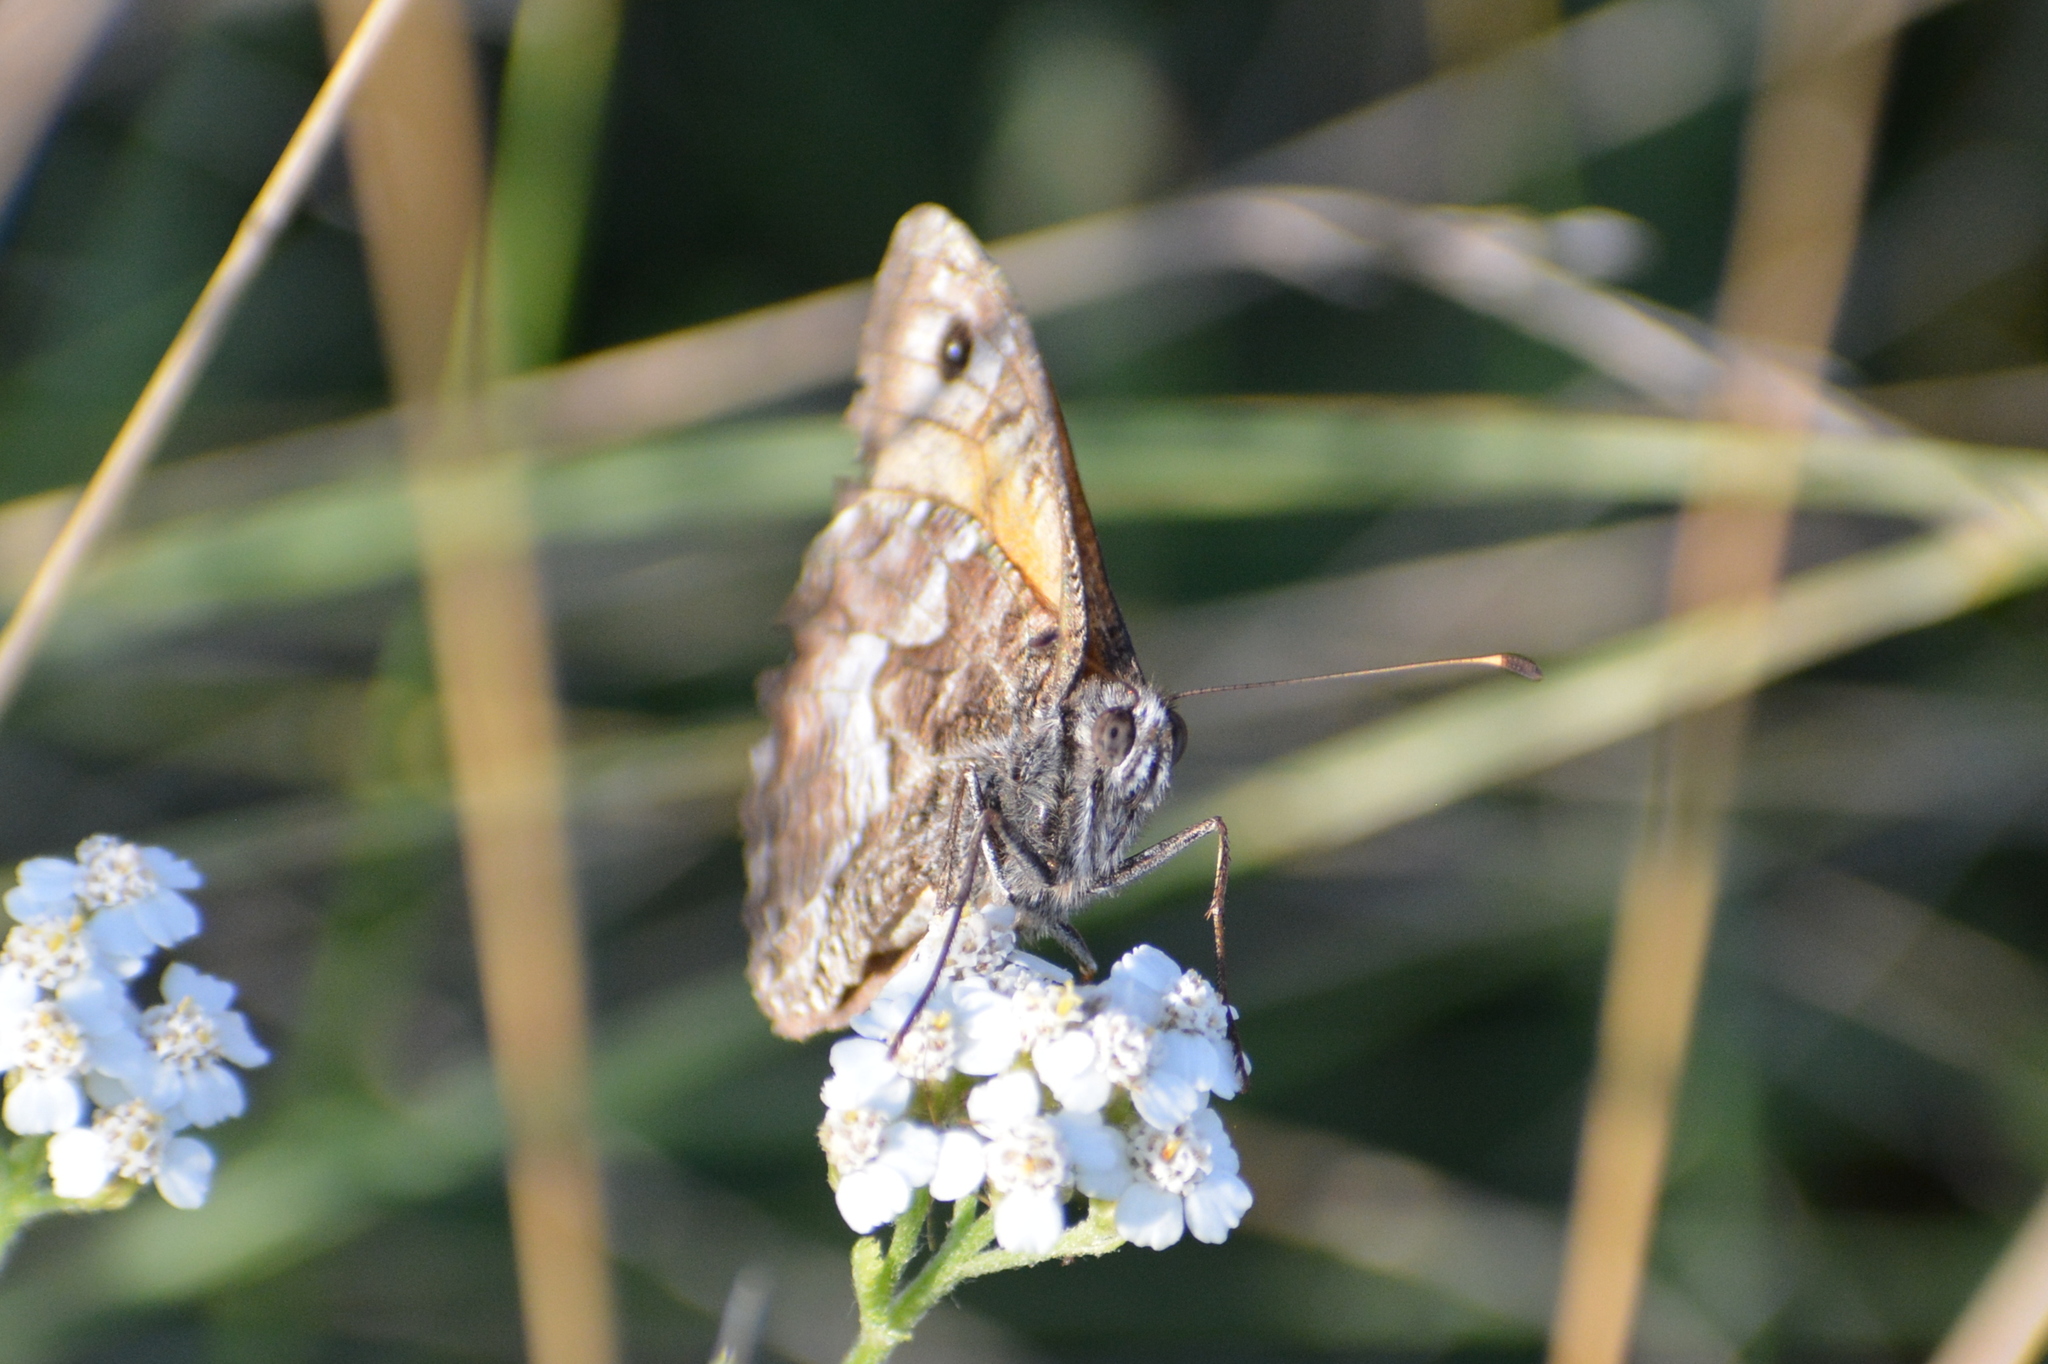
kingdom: Animalia
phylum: Arthropoda
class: Insecta
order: Lepidoptera
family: Nymphalidae
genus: Hipparchia
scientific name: Hipparchia semele
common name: Grayling
